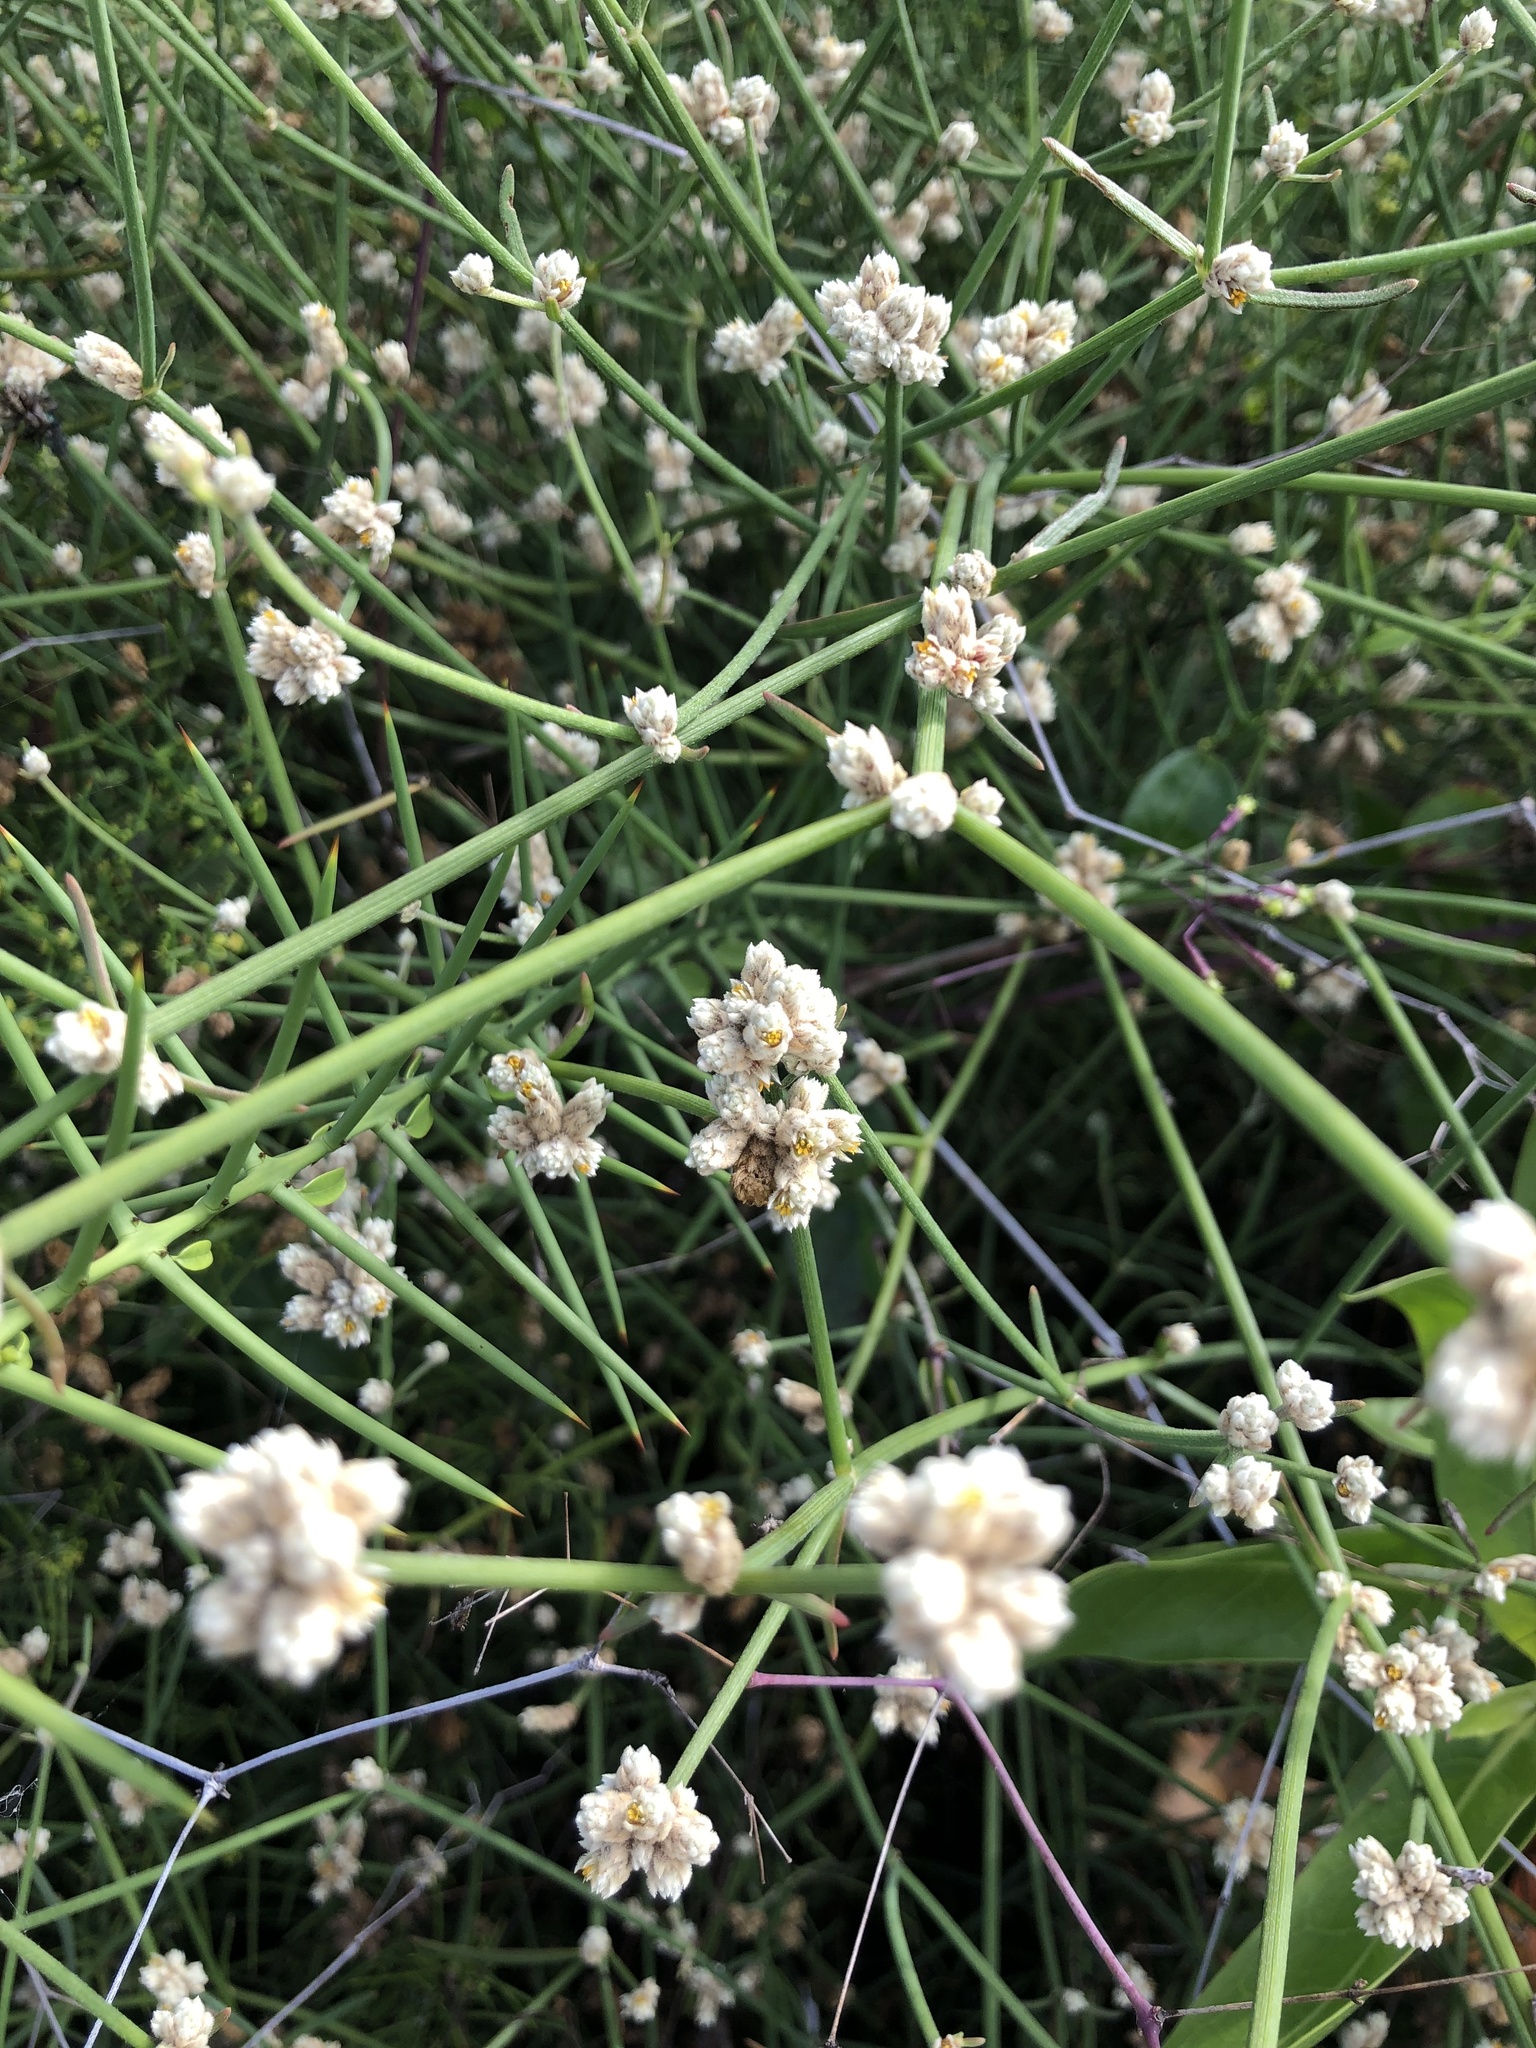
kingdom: Plantae
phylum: Tracheophyta
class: Magnoliopsida
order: Caryophyllales
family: Amaranthaceae
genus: Alternanthera
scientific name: Alternanthera filifolia
